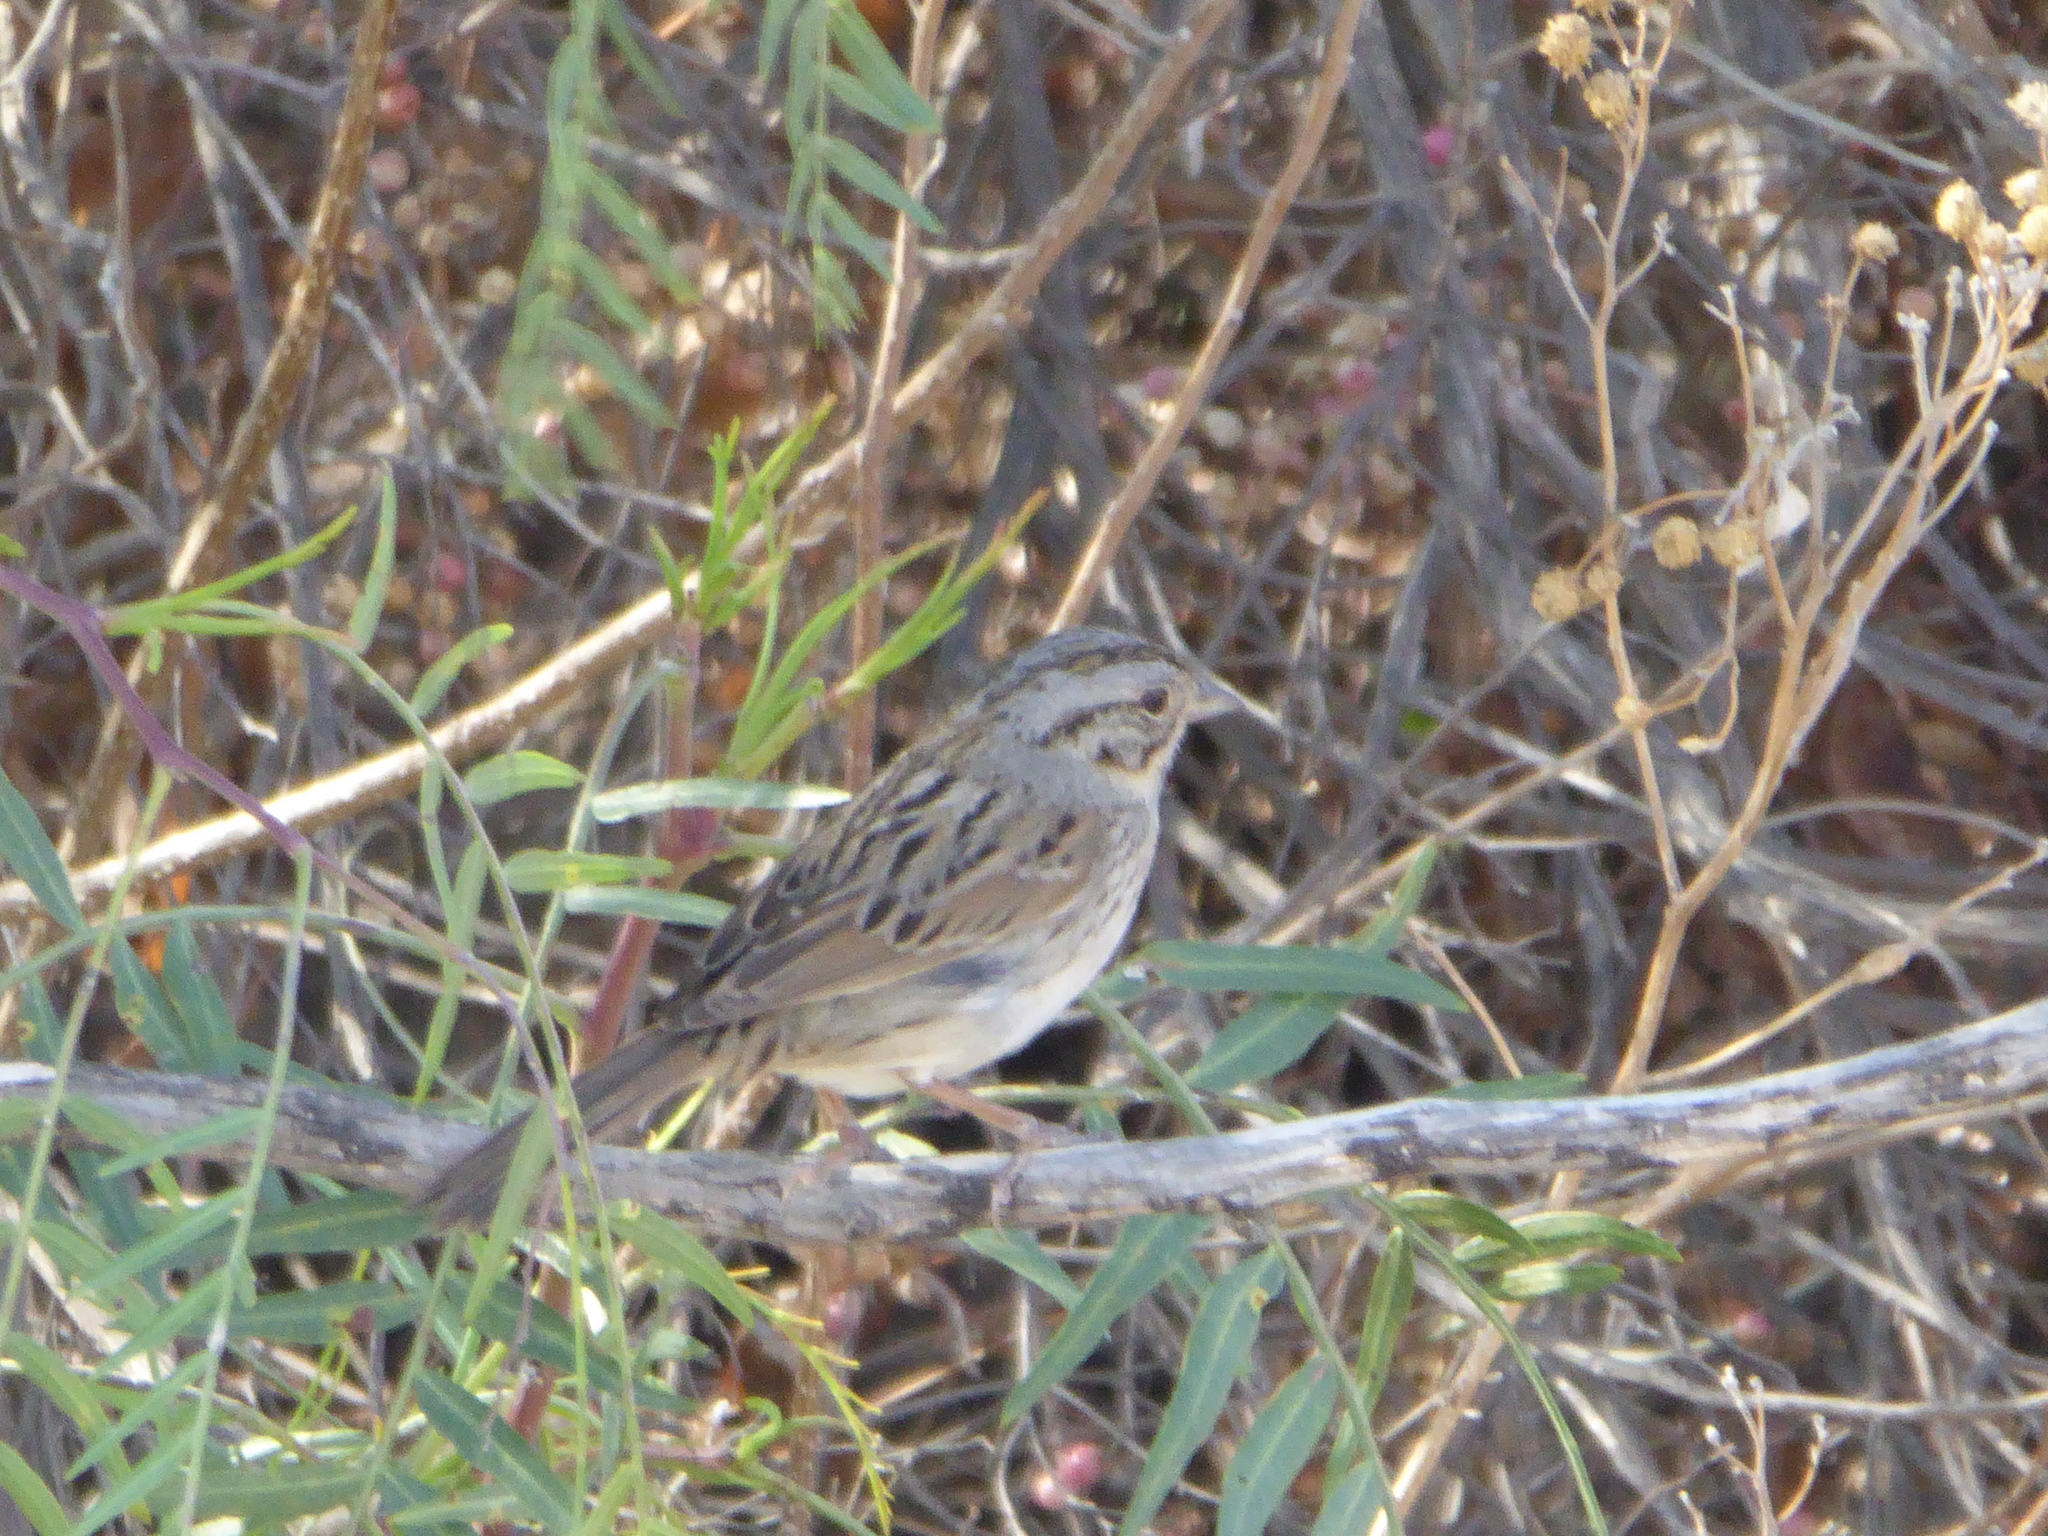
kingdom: Animalia
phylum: Chordata
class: Aves
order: Passeriformes
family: Passerellidae
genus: Melospiza
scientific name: Melospiza lincolnii
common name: Lincoln's sparrow
